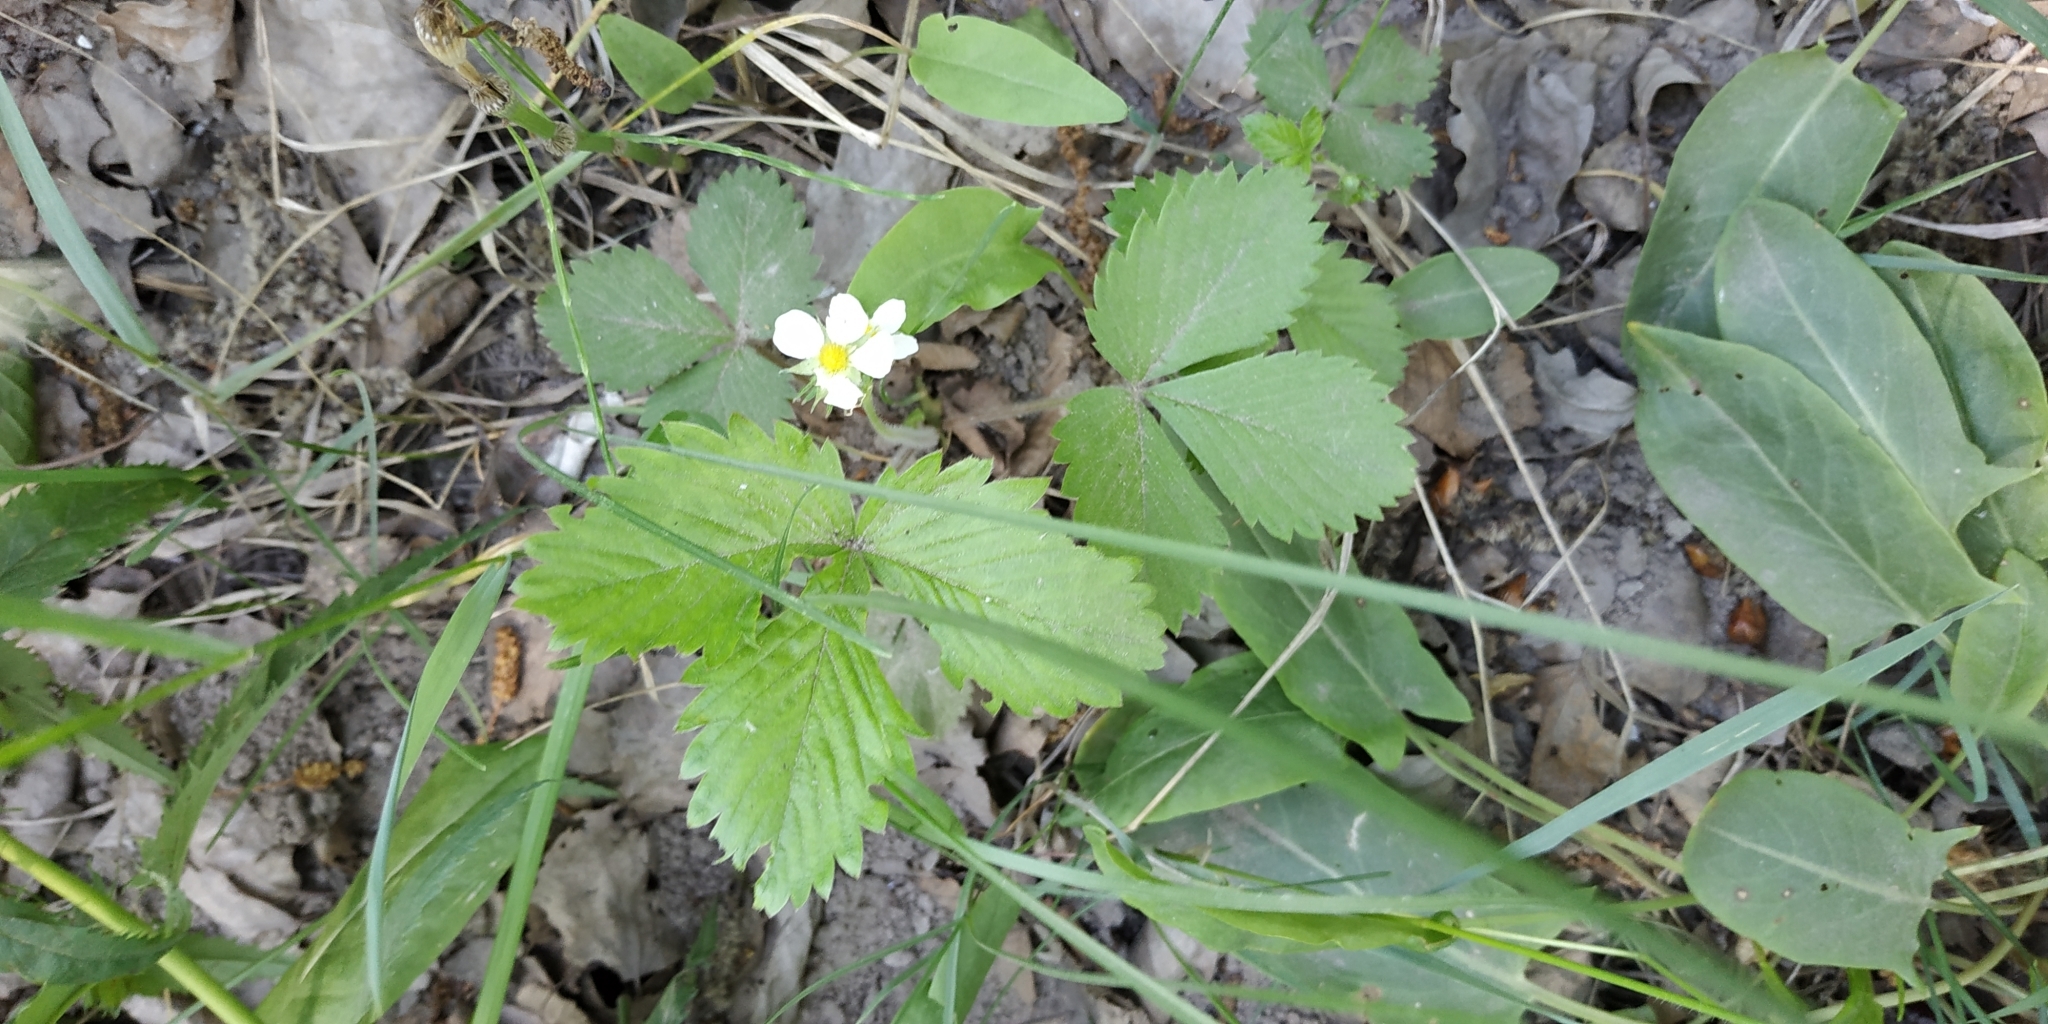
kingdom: Plantae
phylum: Tracheophyta
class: Magnoliopsida
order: Rosales
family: Rosaceae
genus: Fragaria
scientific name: Fragaria vesca
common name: Wild strawberry
